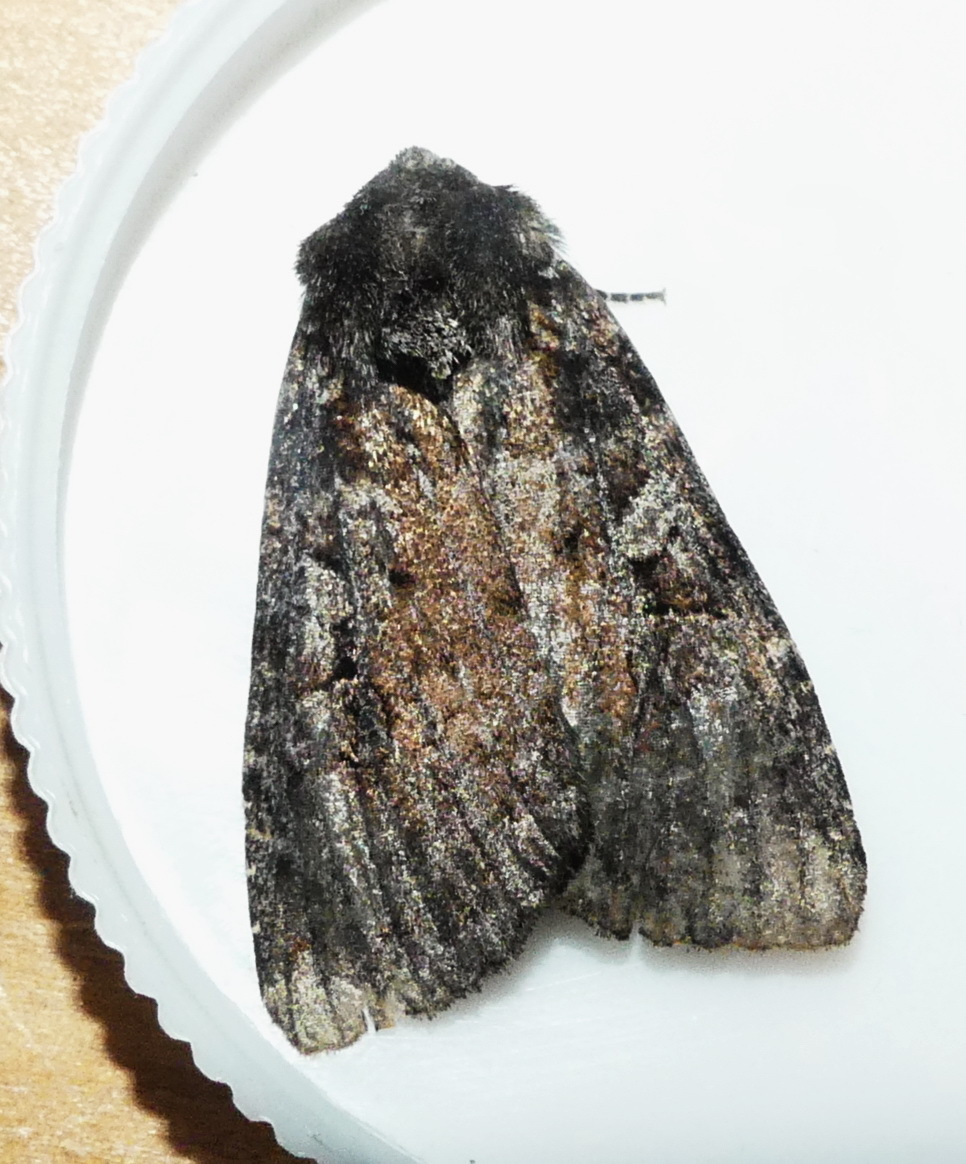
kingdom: Animalia
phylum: Arthropoda
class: Insecta
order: Lepidoptera
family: Noctuidae
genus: Eurois
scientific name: Eurois astricta
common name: Great brown dart
